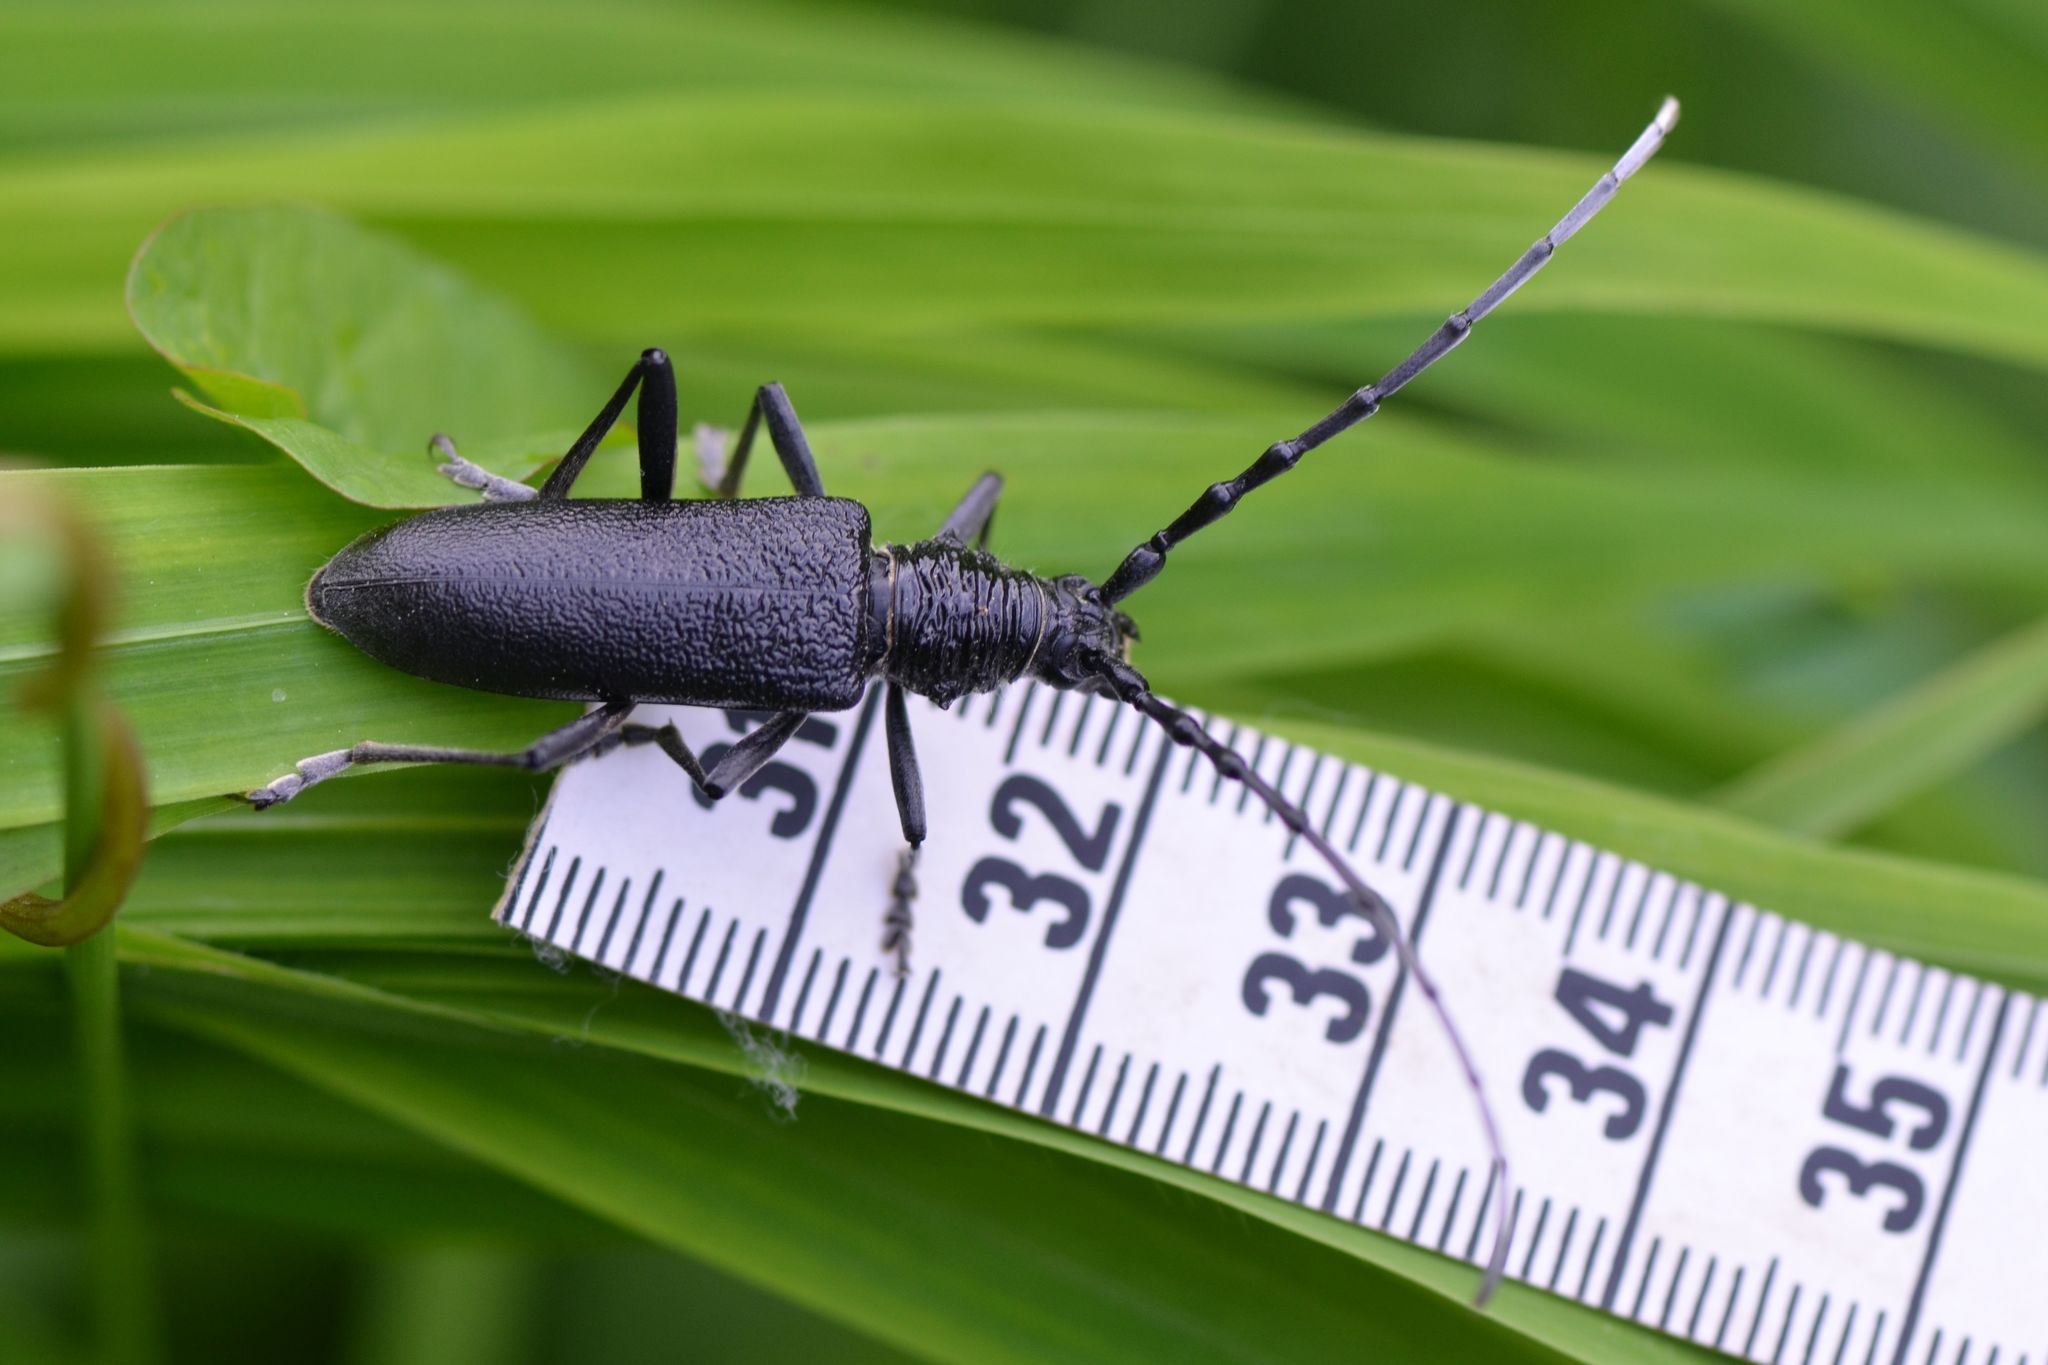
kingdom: Animalia
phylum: Arthropoda
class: Insecta
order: Coleoptera
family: Cerambycidae
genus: Cerambyx
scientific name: Cerambyx scopolii
